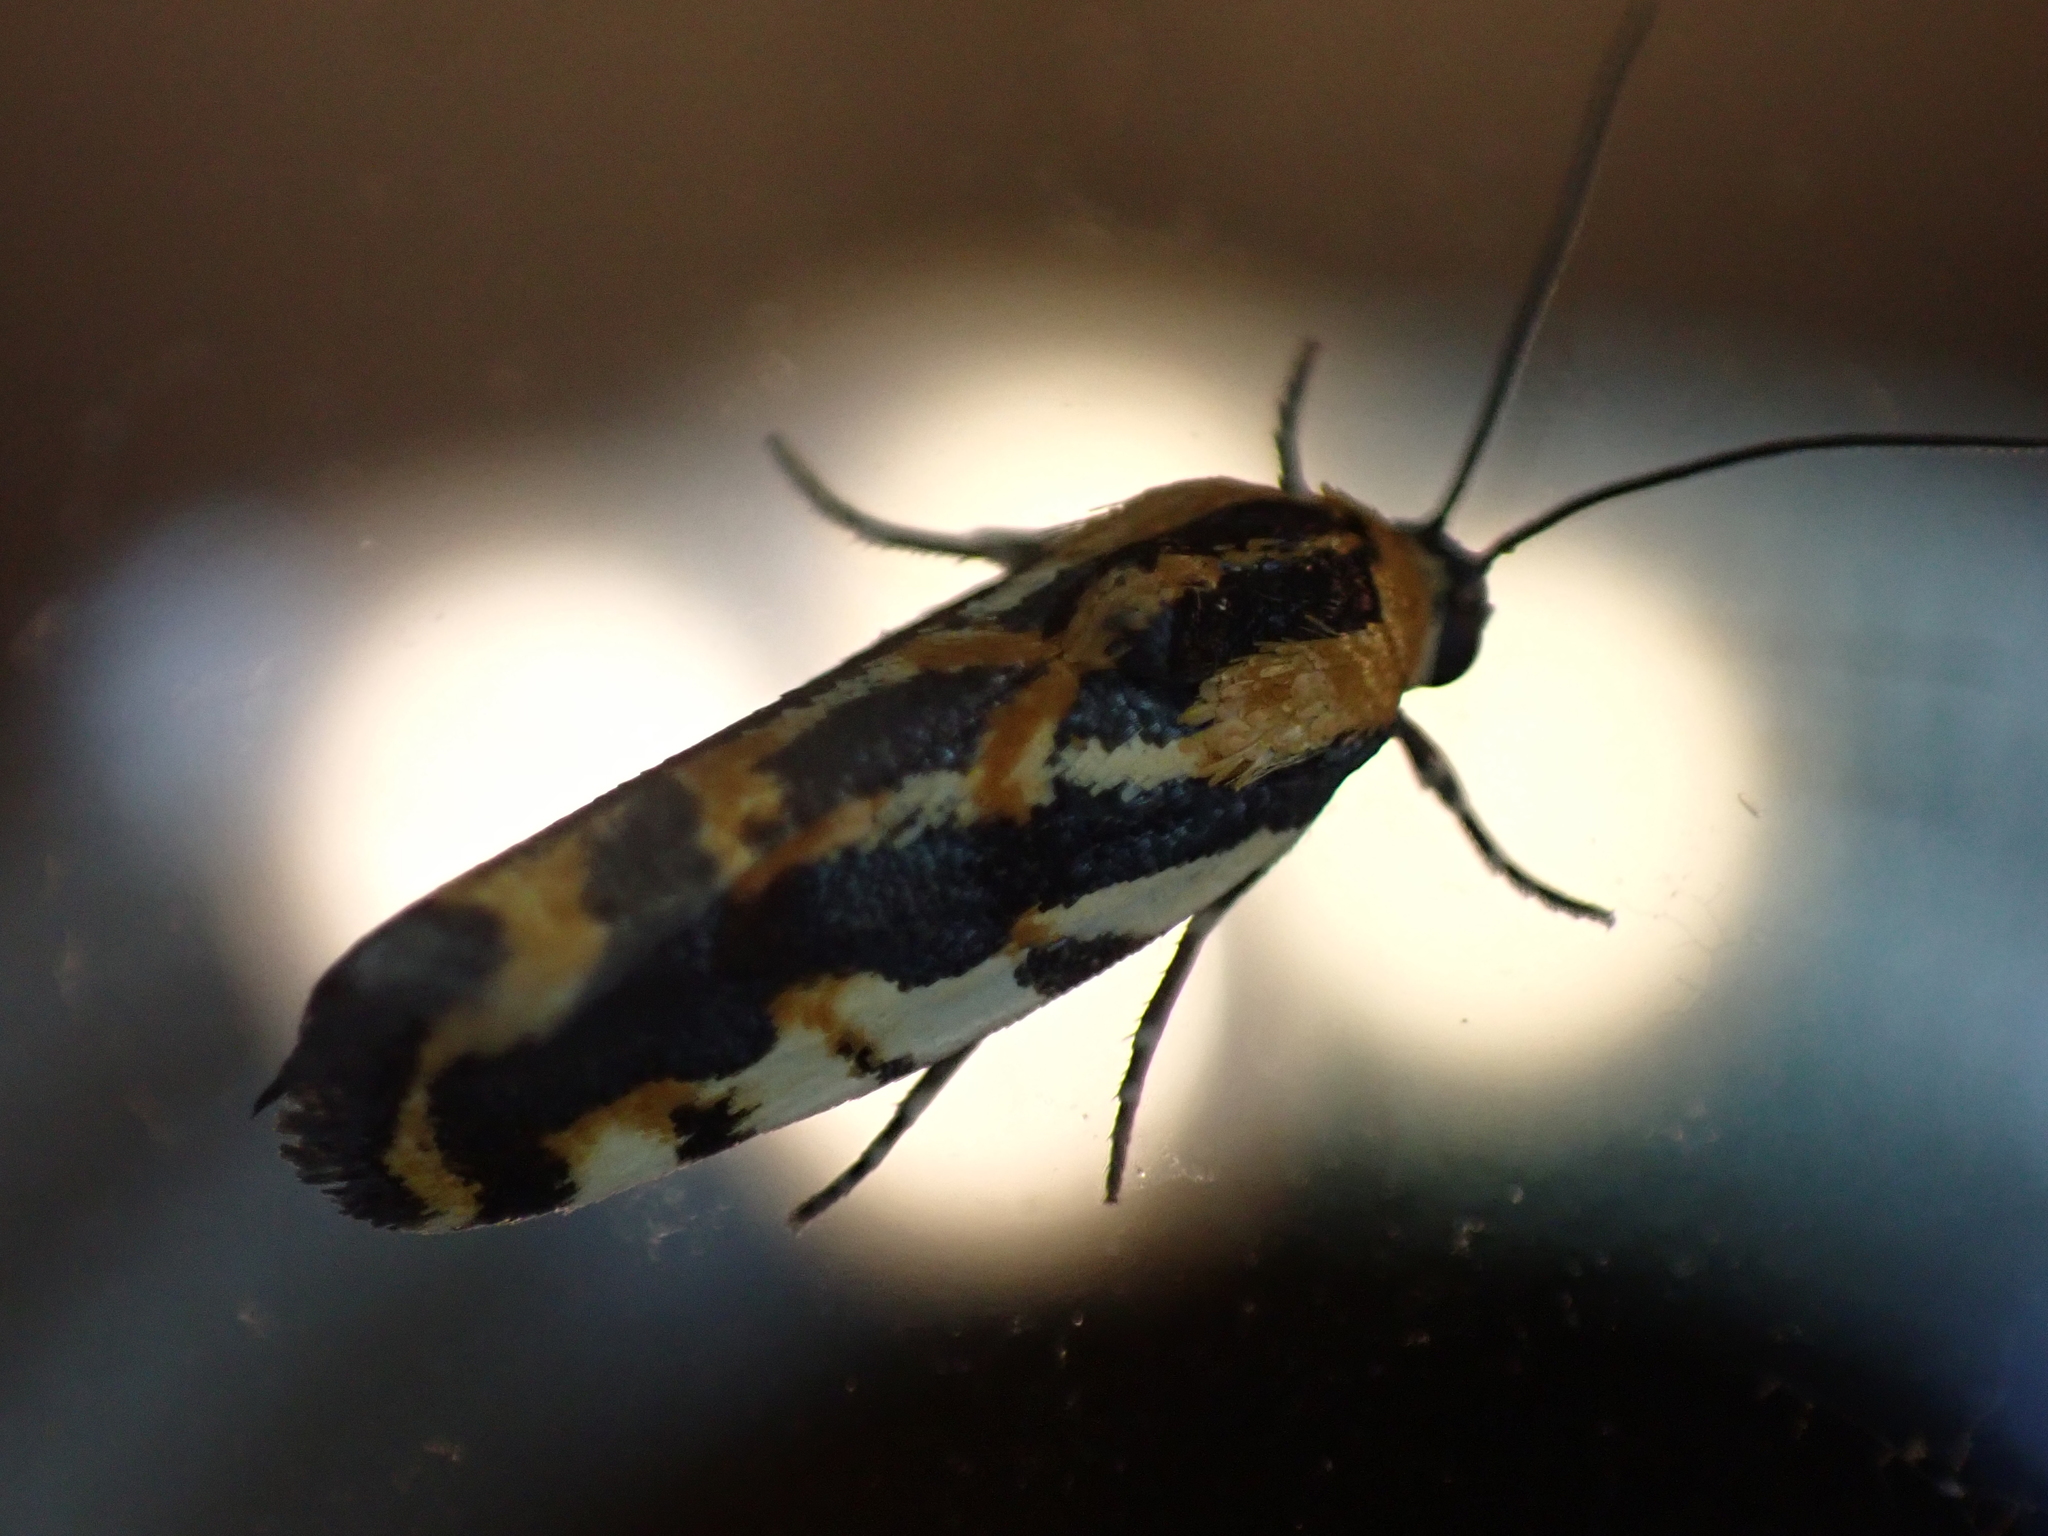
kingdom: Animalia
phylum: Arthropoda
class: Insecta
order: Lepidoptera
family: Noctuidae
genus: Acontia
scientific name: Acontia leo
